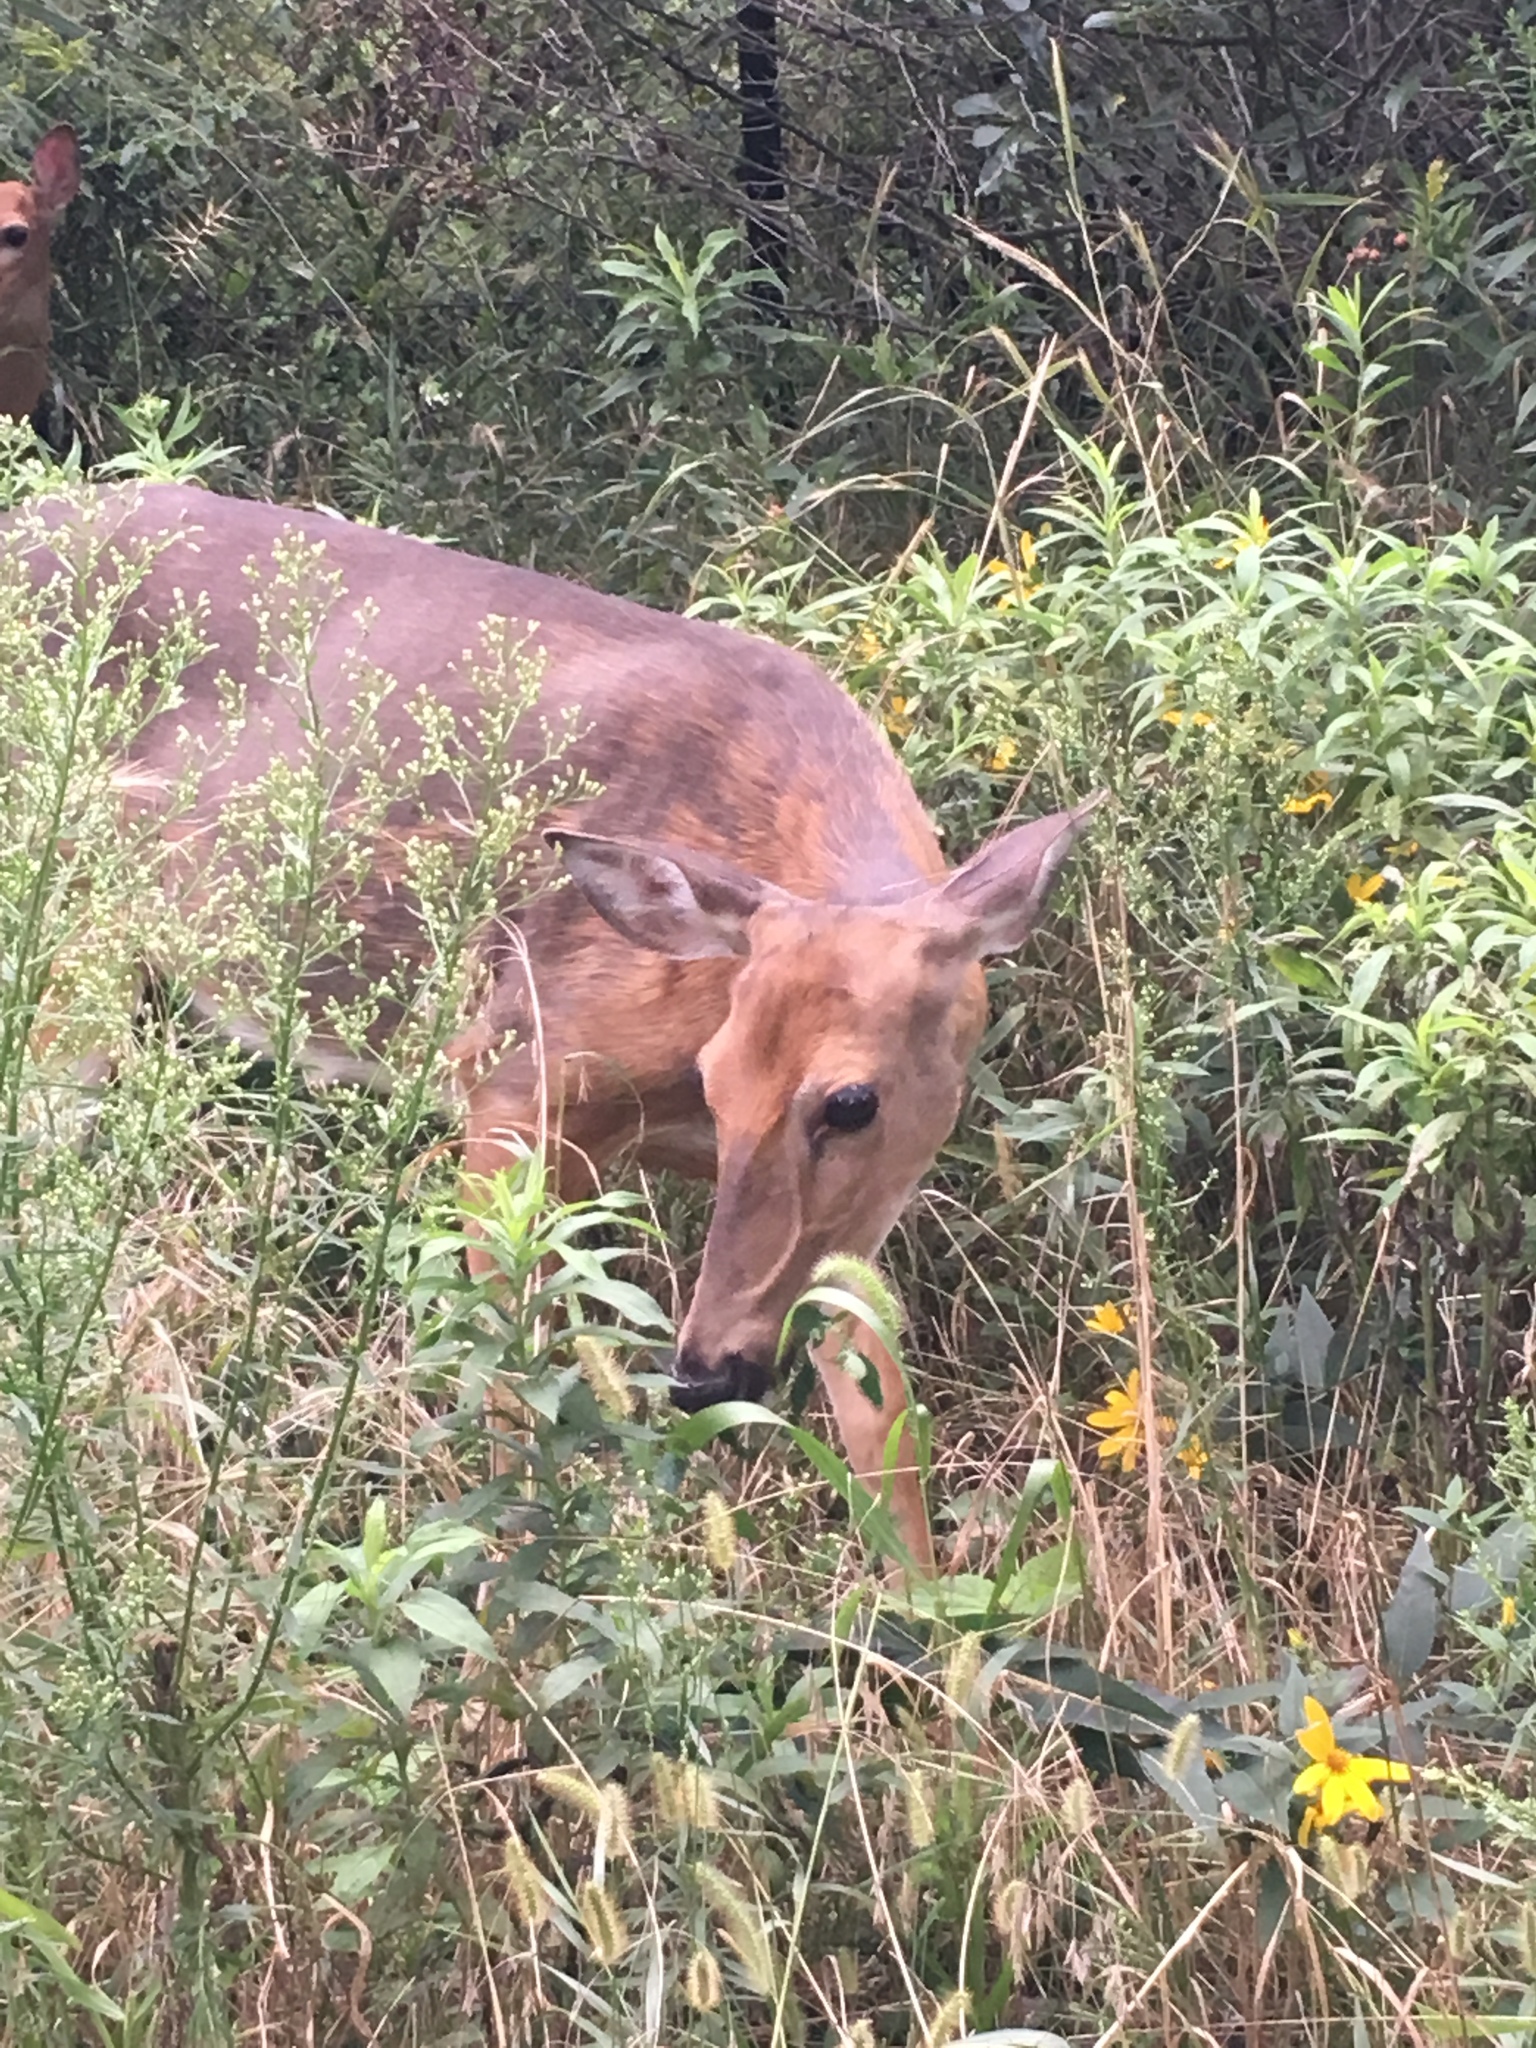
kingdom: Animalia
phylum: Chordata
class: Mammalia
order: Artiodactyla
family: Cervidae
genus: Odocoileus
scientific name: Odocoileus virginianus
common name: White-tailed deer
